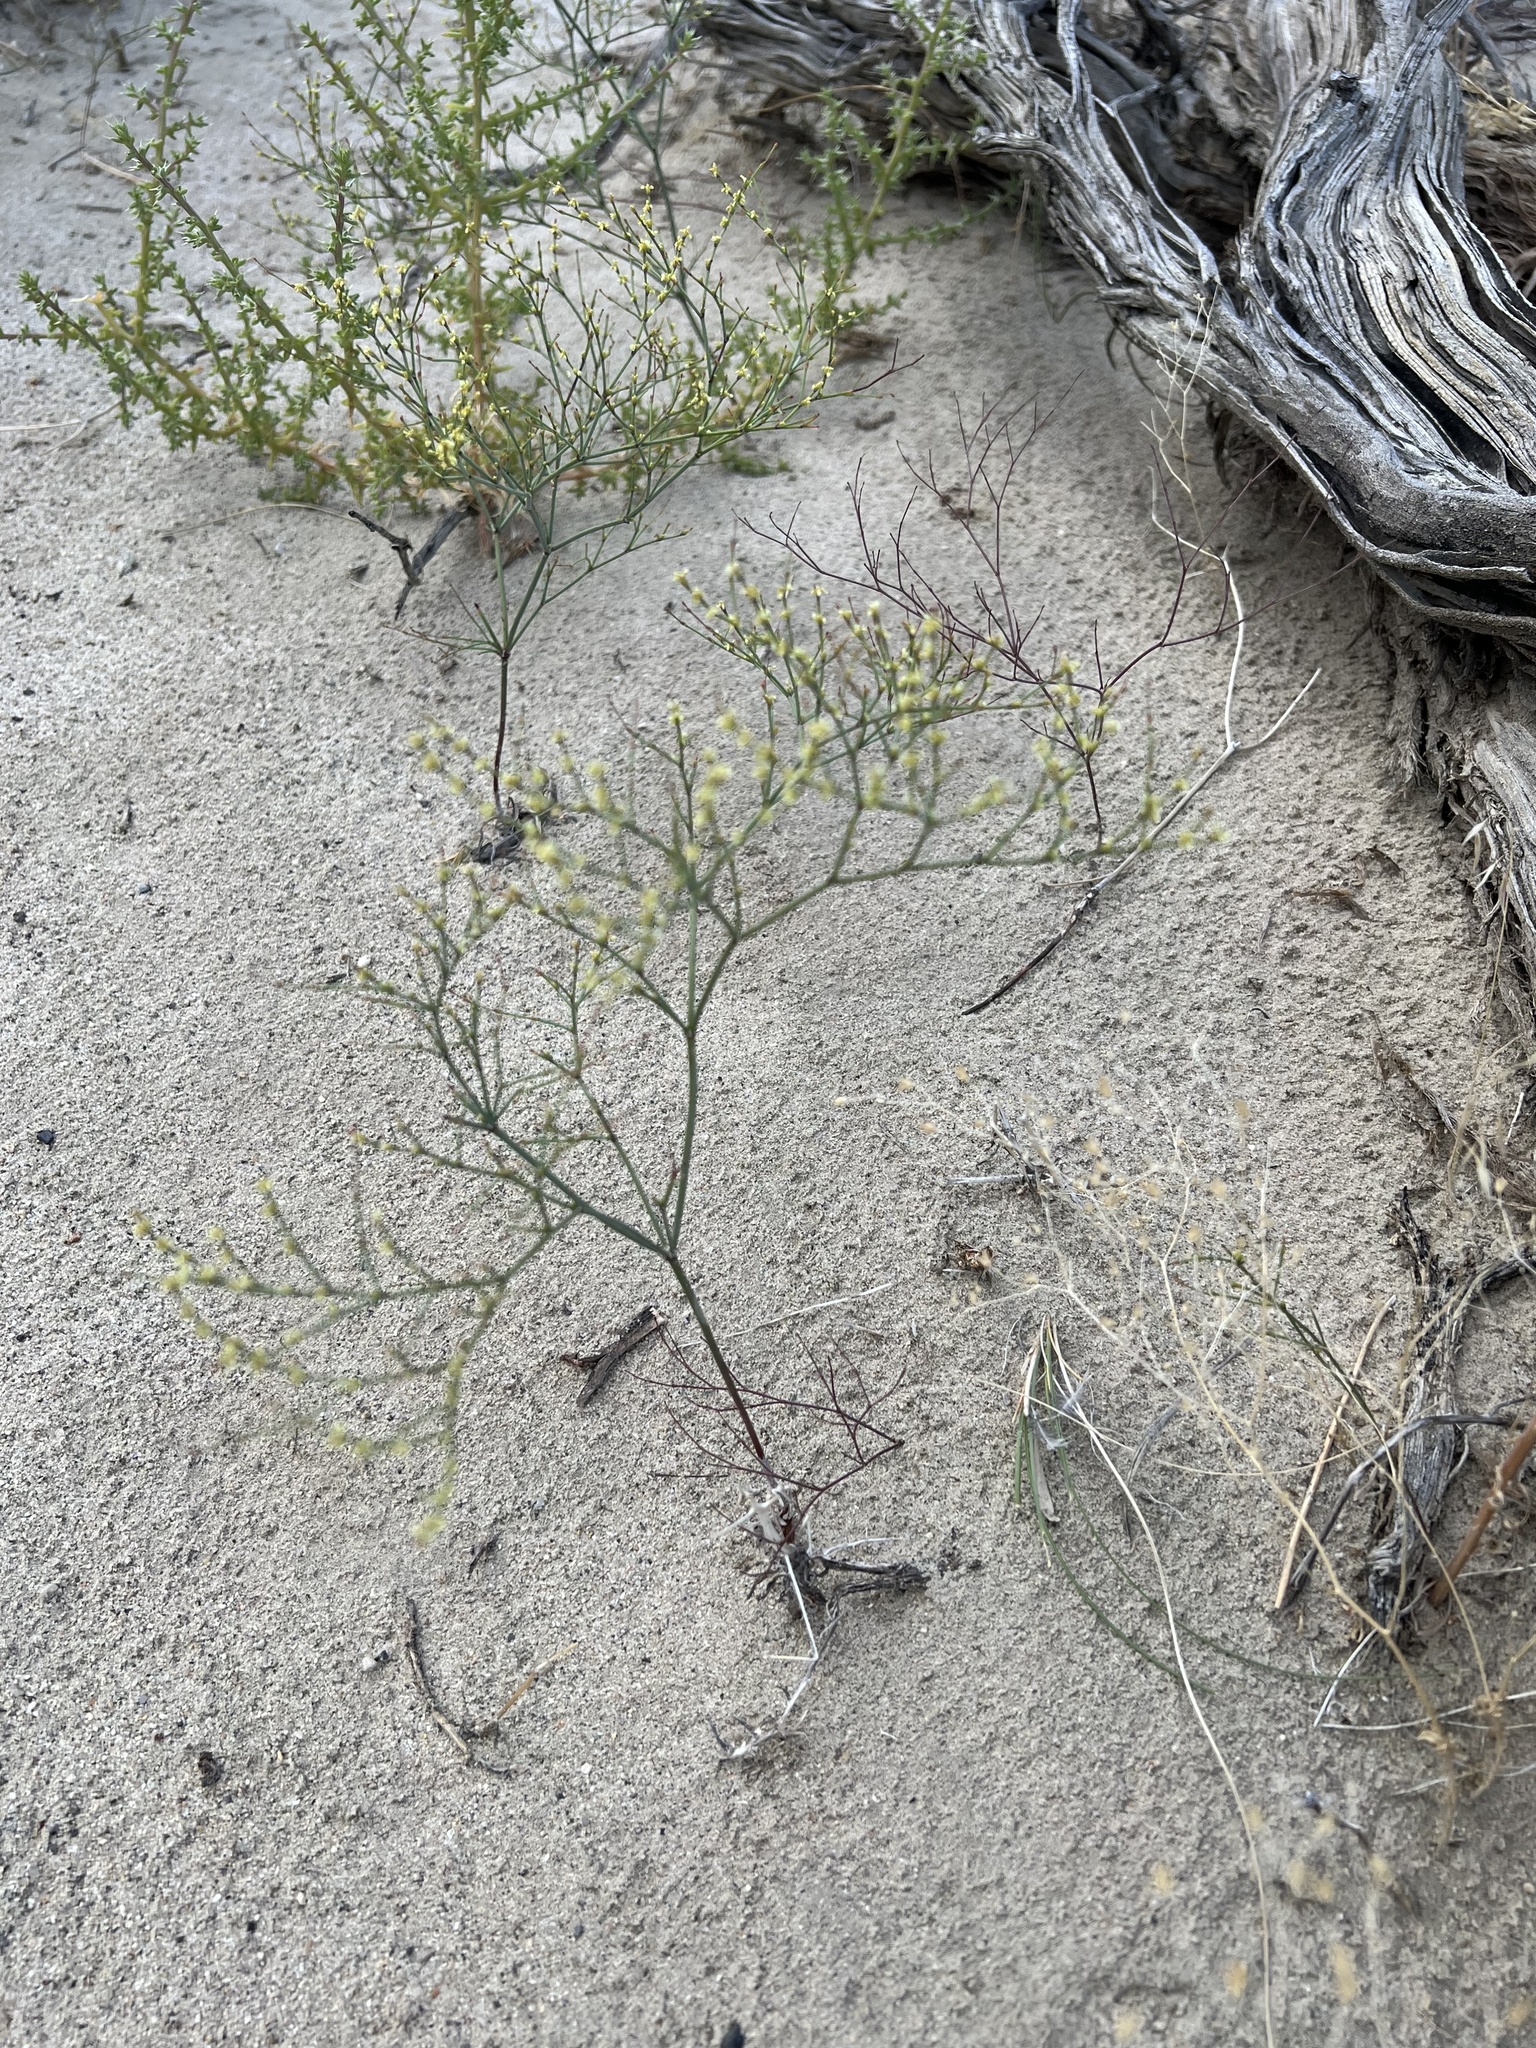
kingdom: Plantae
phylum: Tracheophyta
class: Magnoliopsida
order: Caryophyllales
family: Polygonaceae
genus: Eriogonum
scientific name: Eriogonum brachyanthum
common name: Short-flower wild buckwheat
